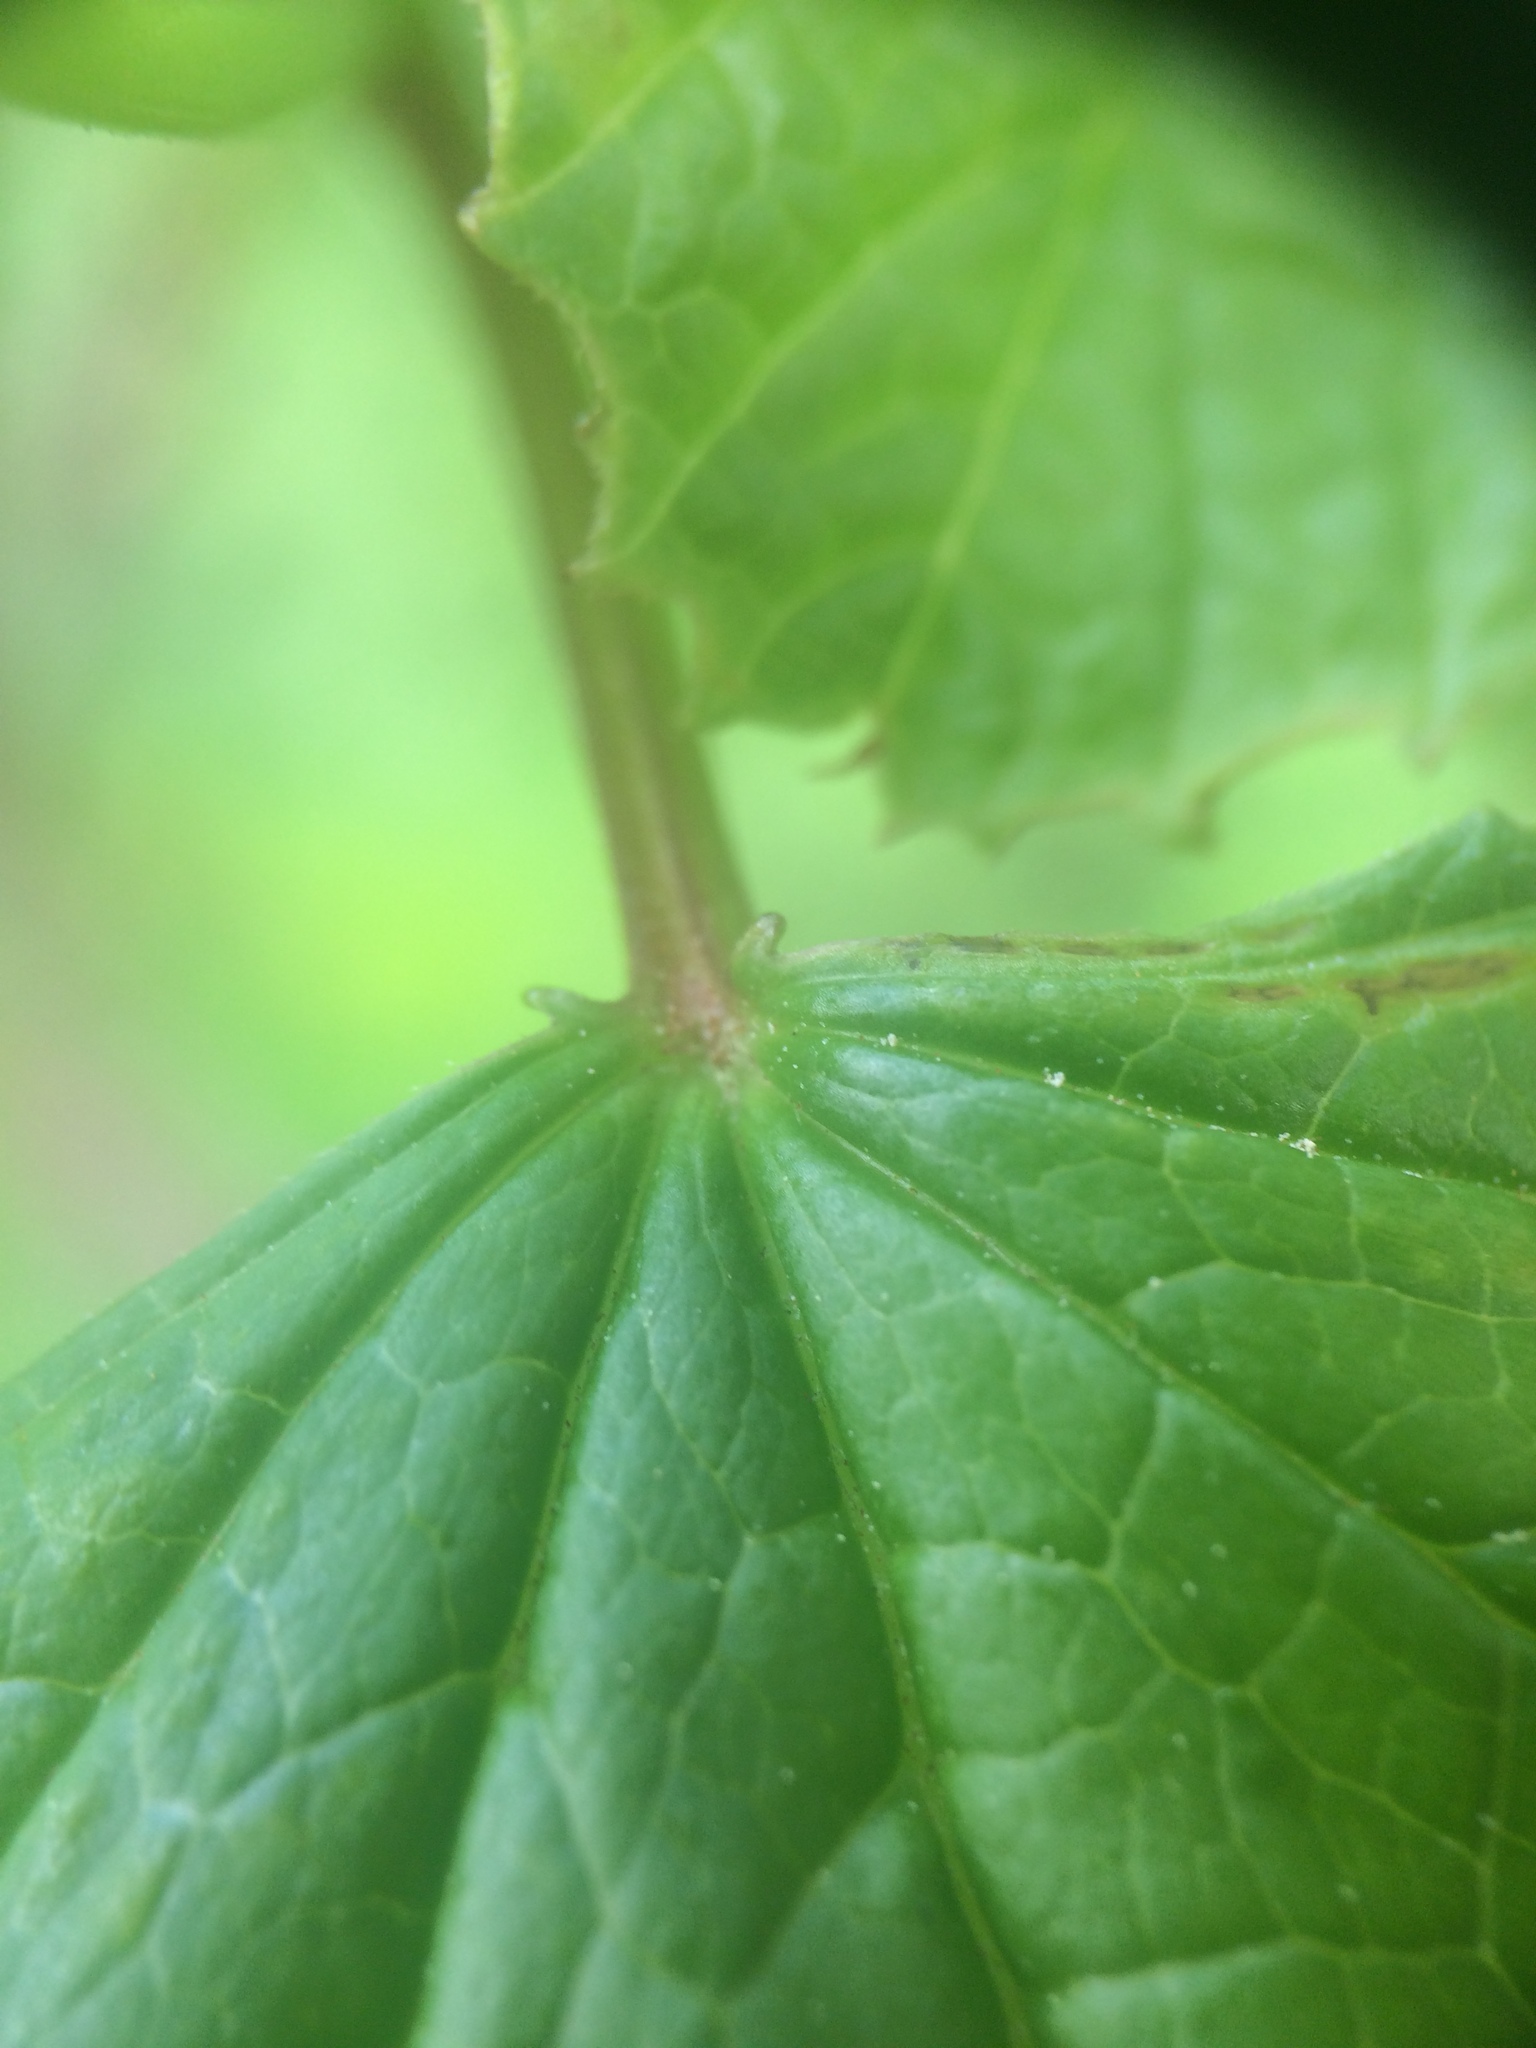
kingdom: Plantae
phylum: Tracheophyta
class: Magnoliopsida
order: Dipsacales
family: Viburnaceae
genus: Viburnum
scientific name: Viburnum edule
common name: Mooseberry
